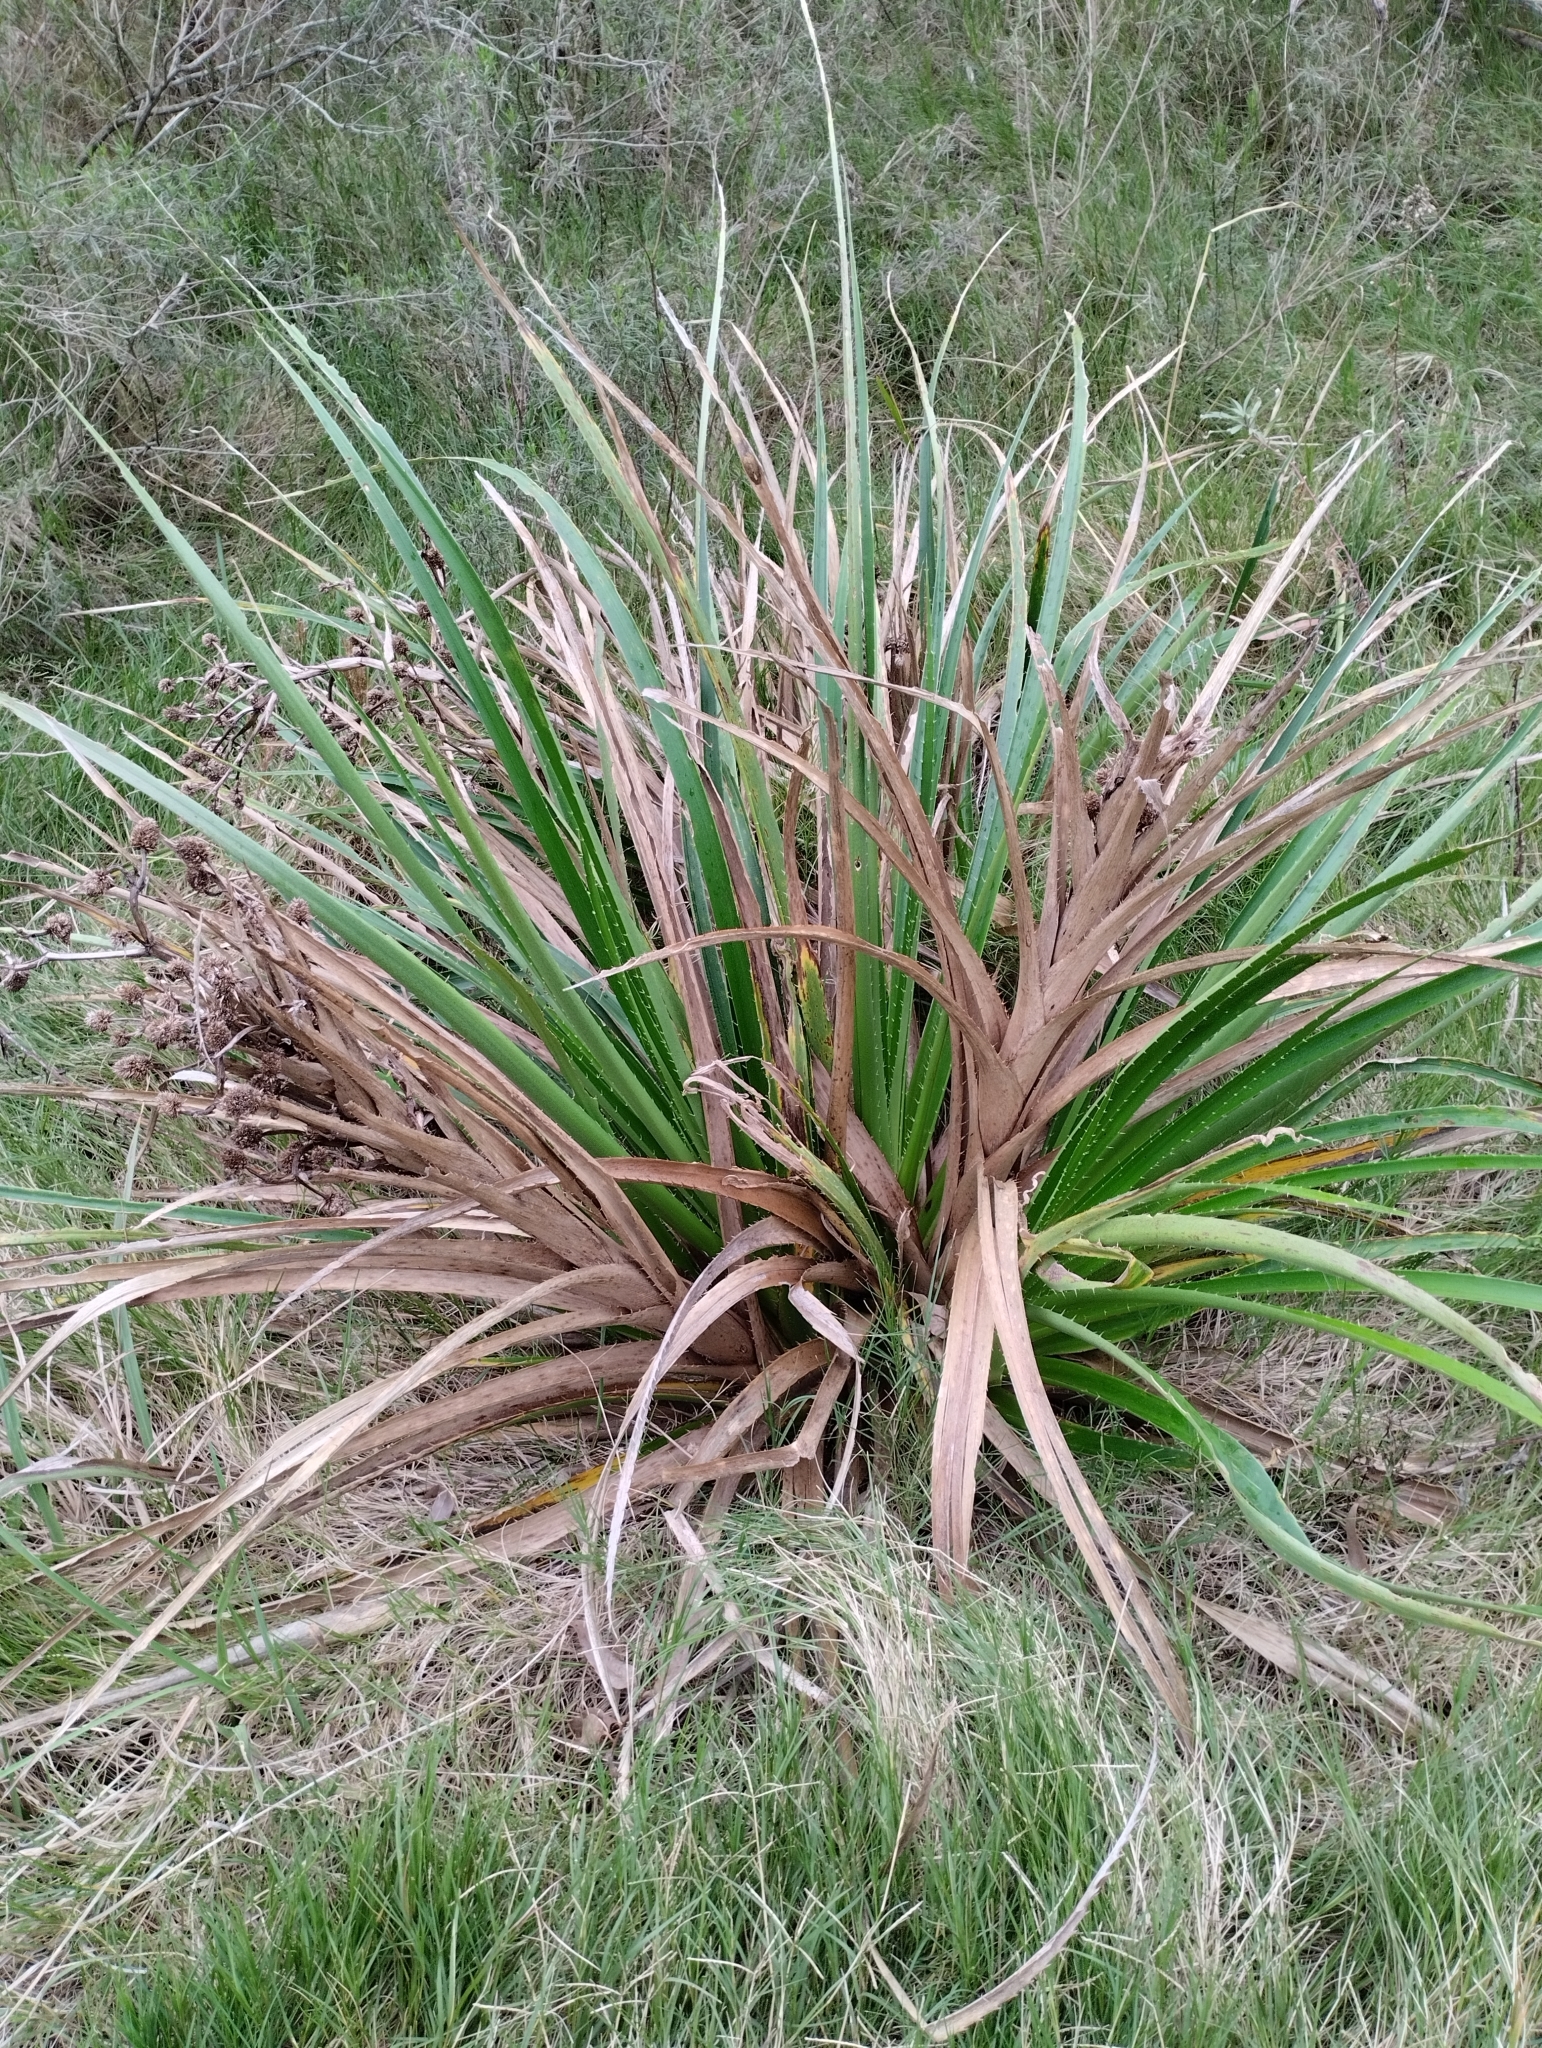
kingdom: Plantae
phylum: Tracheophyta
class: Magnoliopsida
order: Apiales
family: Apiaceae
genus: Eryngium
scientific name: Eryngium eburneum
